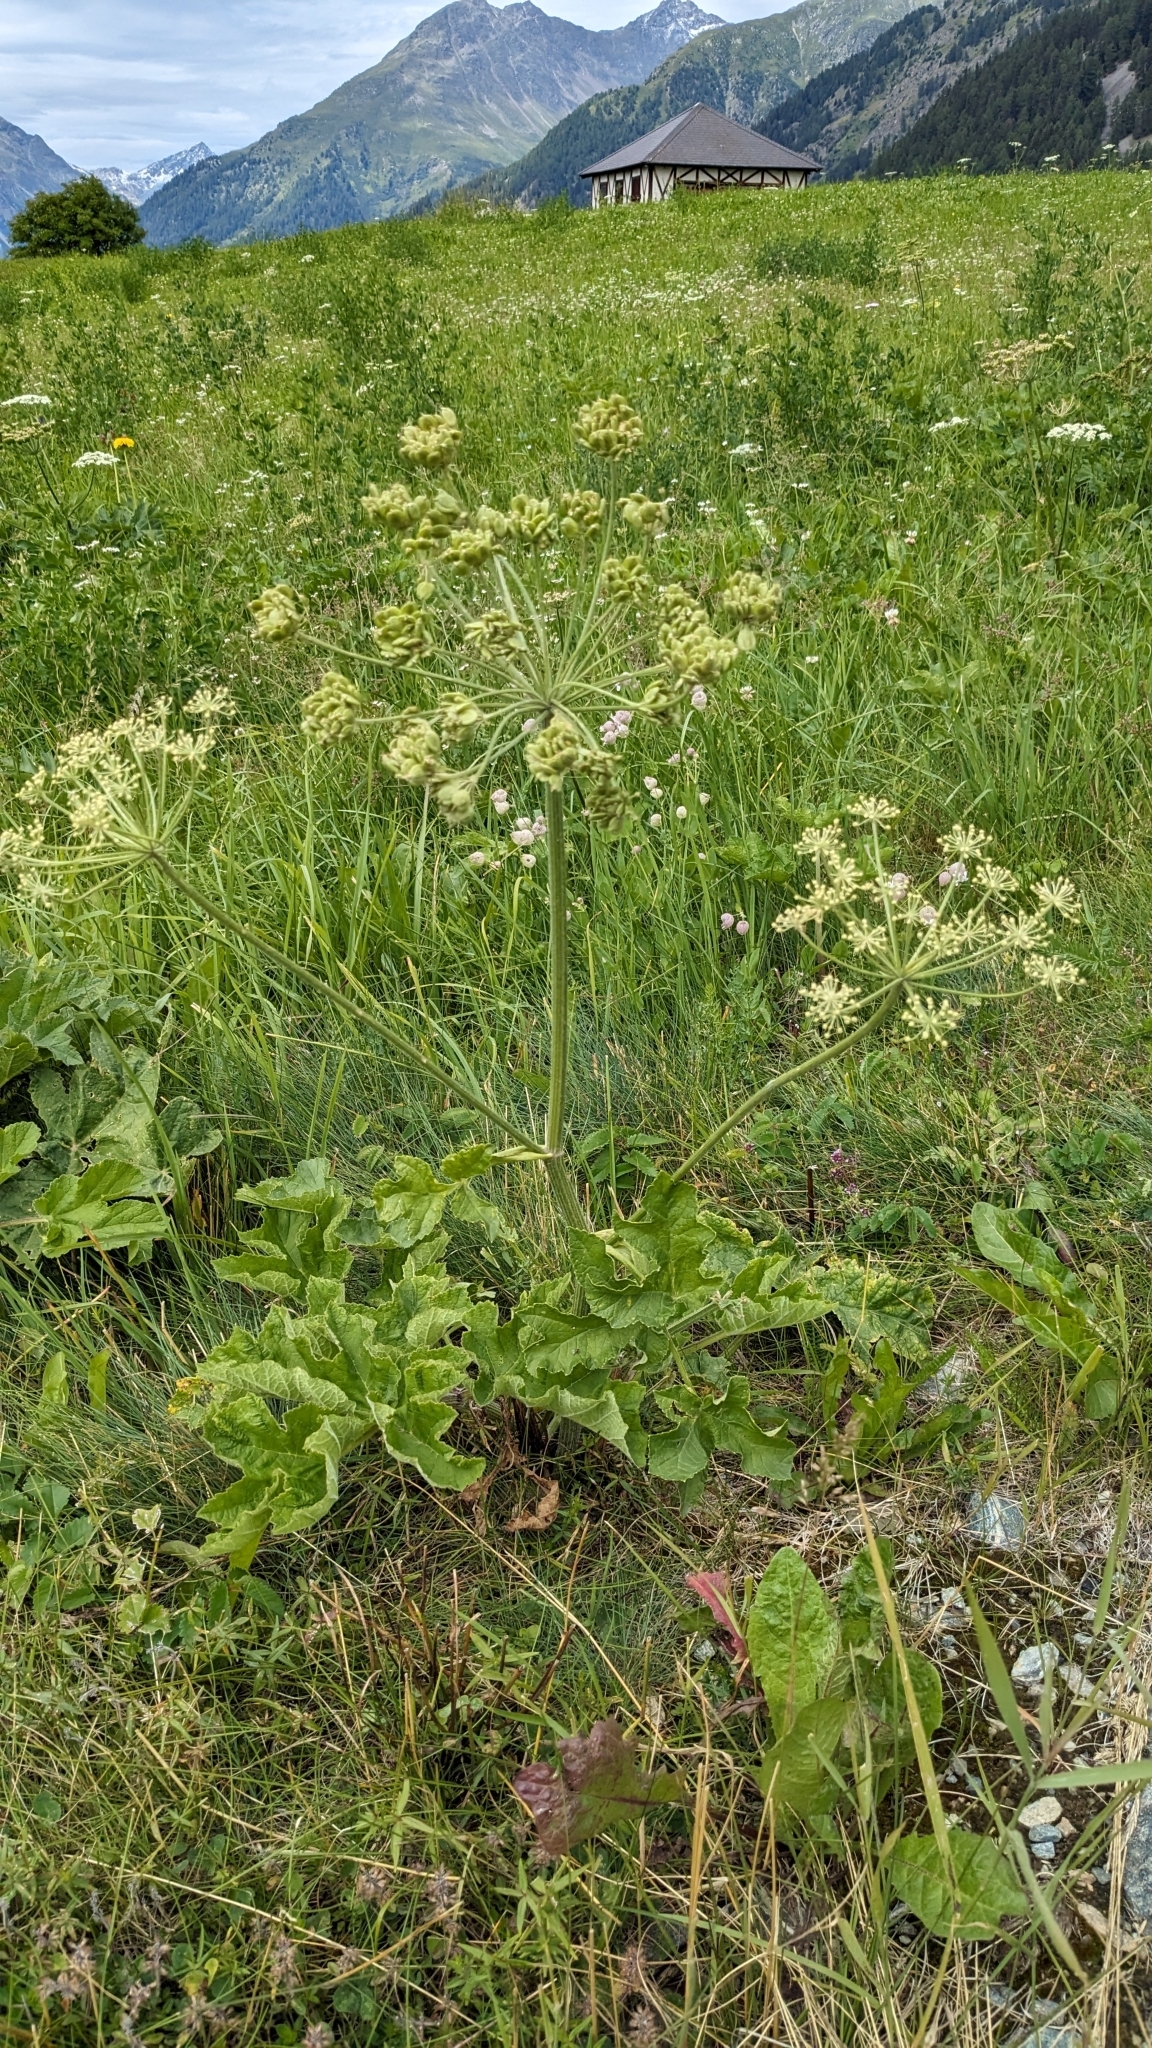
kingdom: Plantae
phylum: Tracheophyta
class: Magnoliopsida
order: Apiales
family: Apiaceae
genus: Heracleum
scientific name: Heracleum sphondylium
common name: Hogweed
